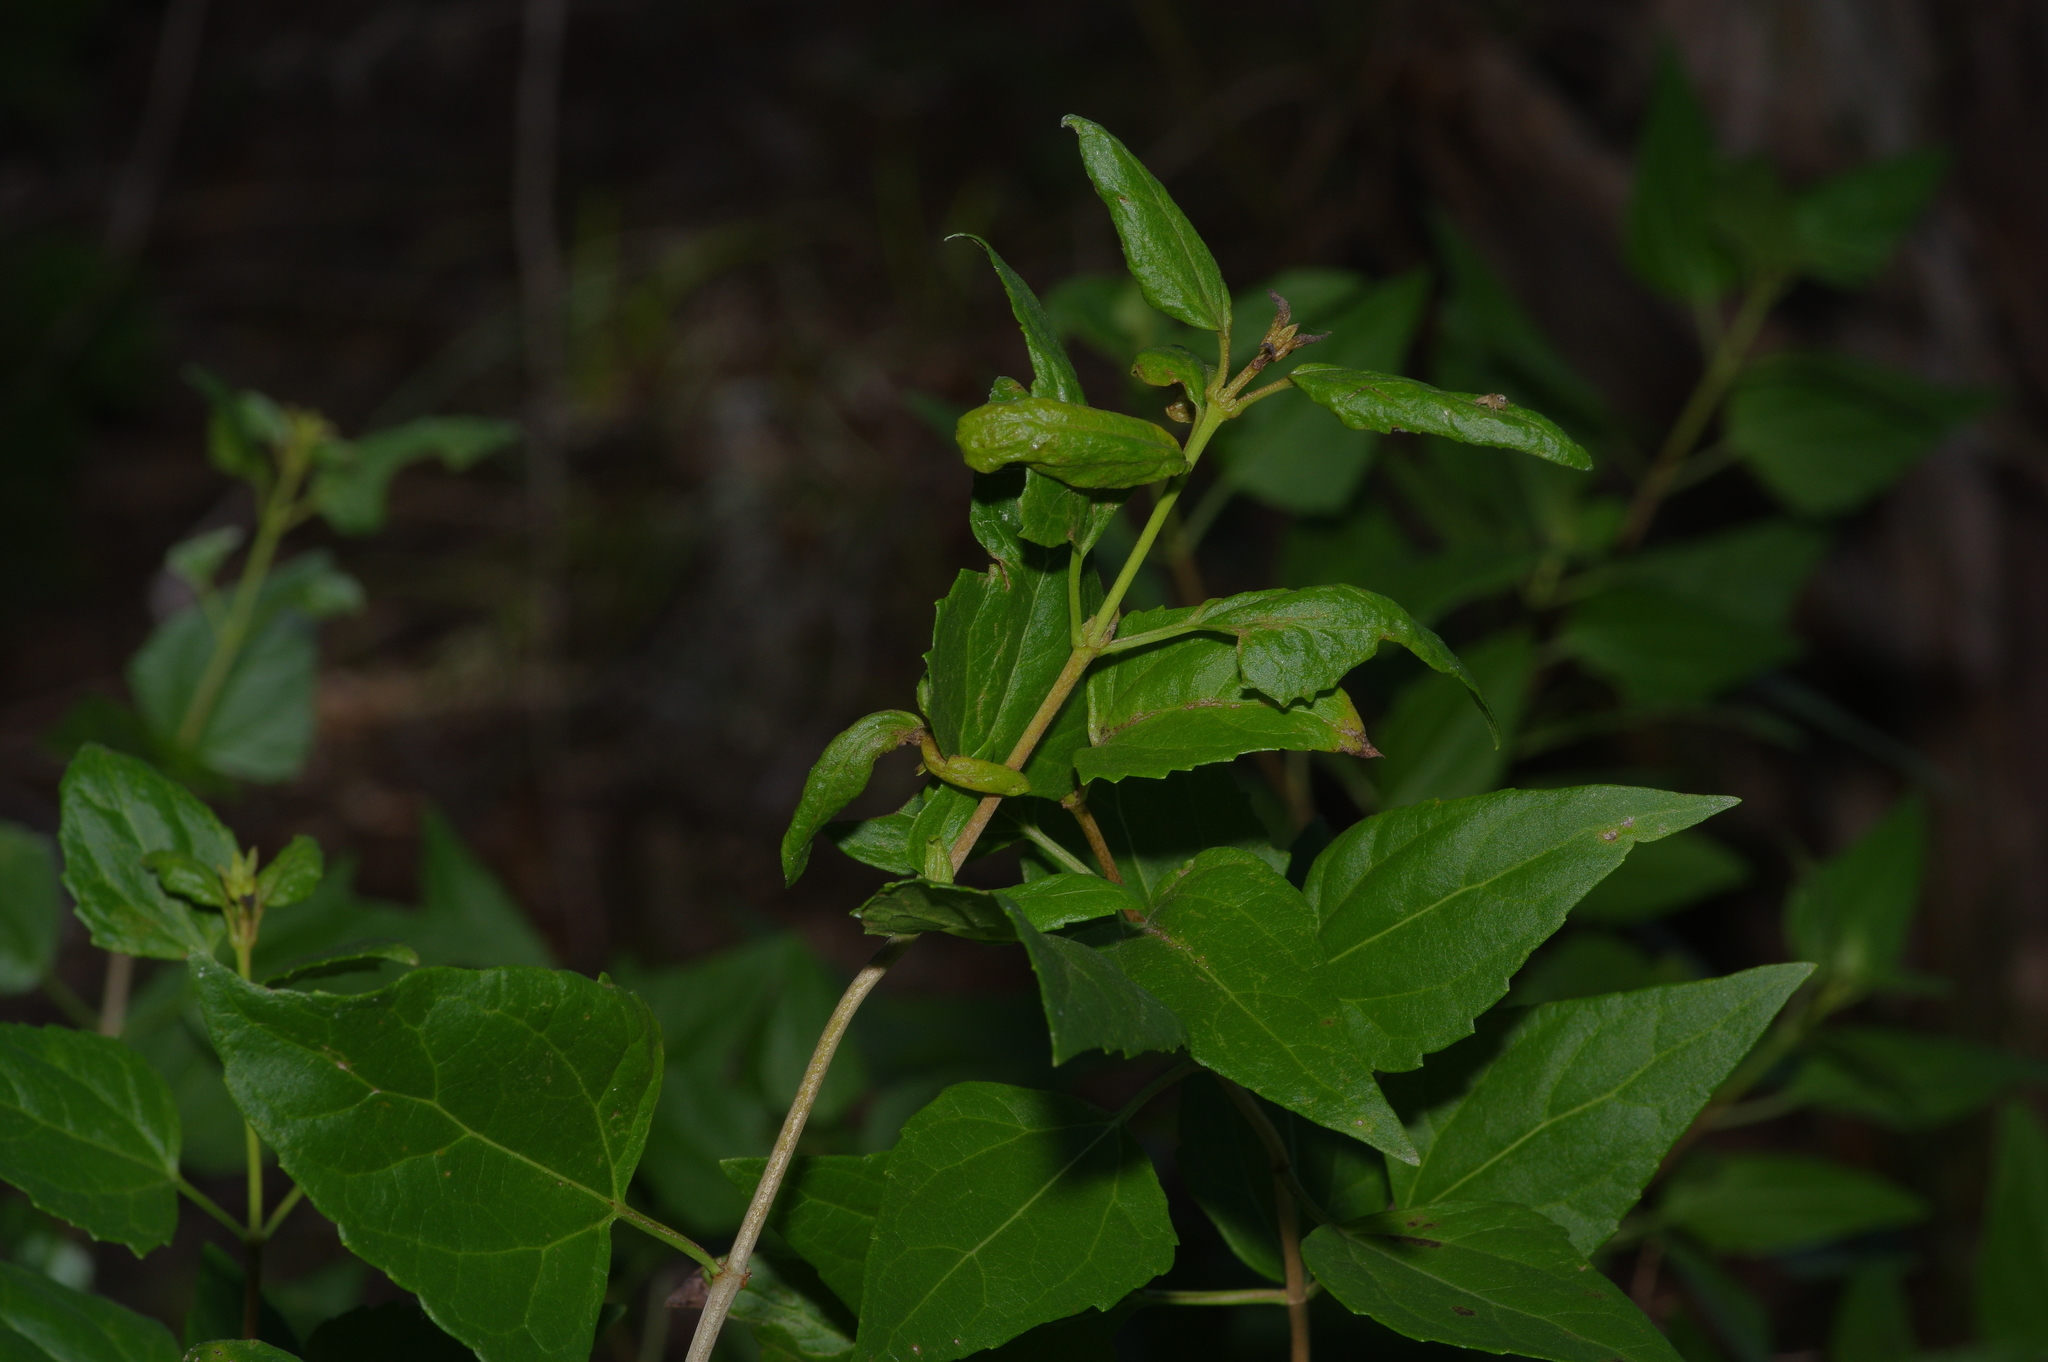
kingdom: Plantae
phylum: Tracheophyta
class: Magnoliopsida
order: Asterales
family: Asteraceae
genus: Ageratina
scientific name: Ageratina havanensis
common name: Havana snakeroot
